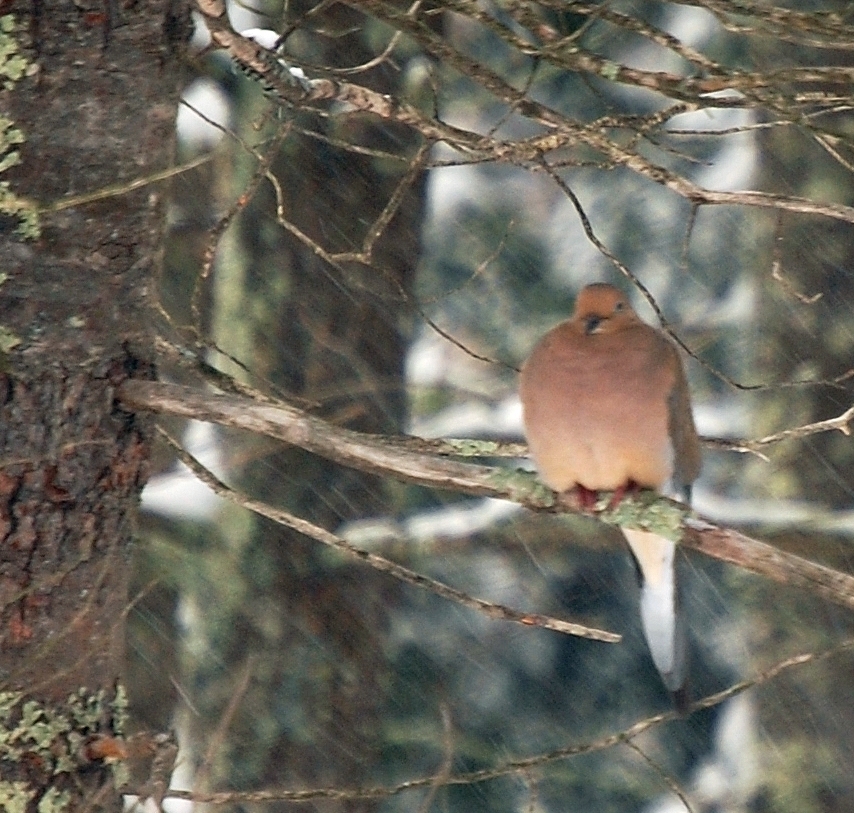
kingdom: Animalia
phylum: Chordata
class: Aves
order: Columbiformes
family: Columbidae
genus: Zenaida
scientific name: Zenaida macroura
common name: Mourning dove
